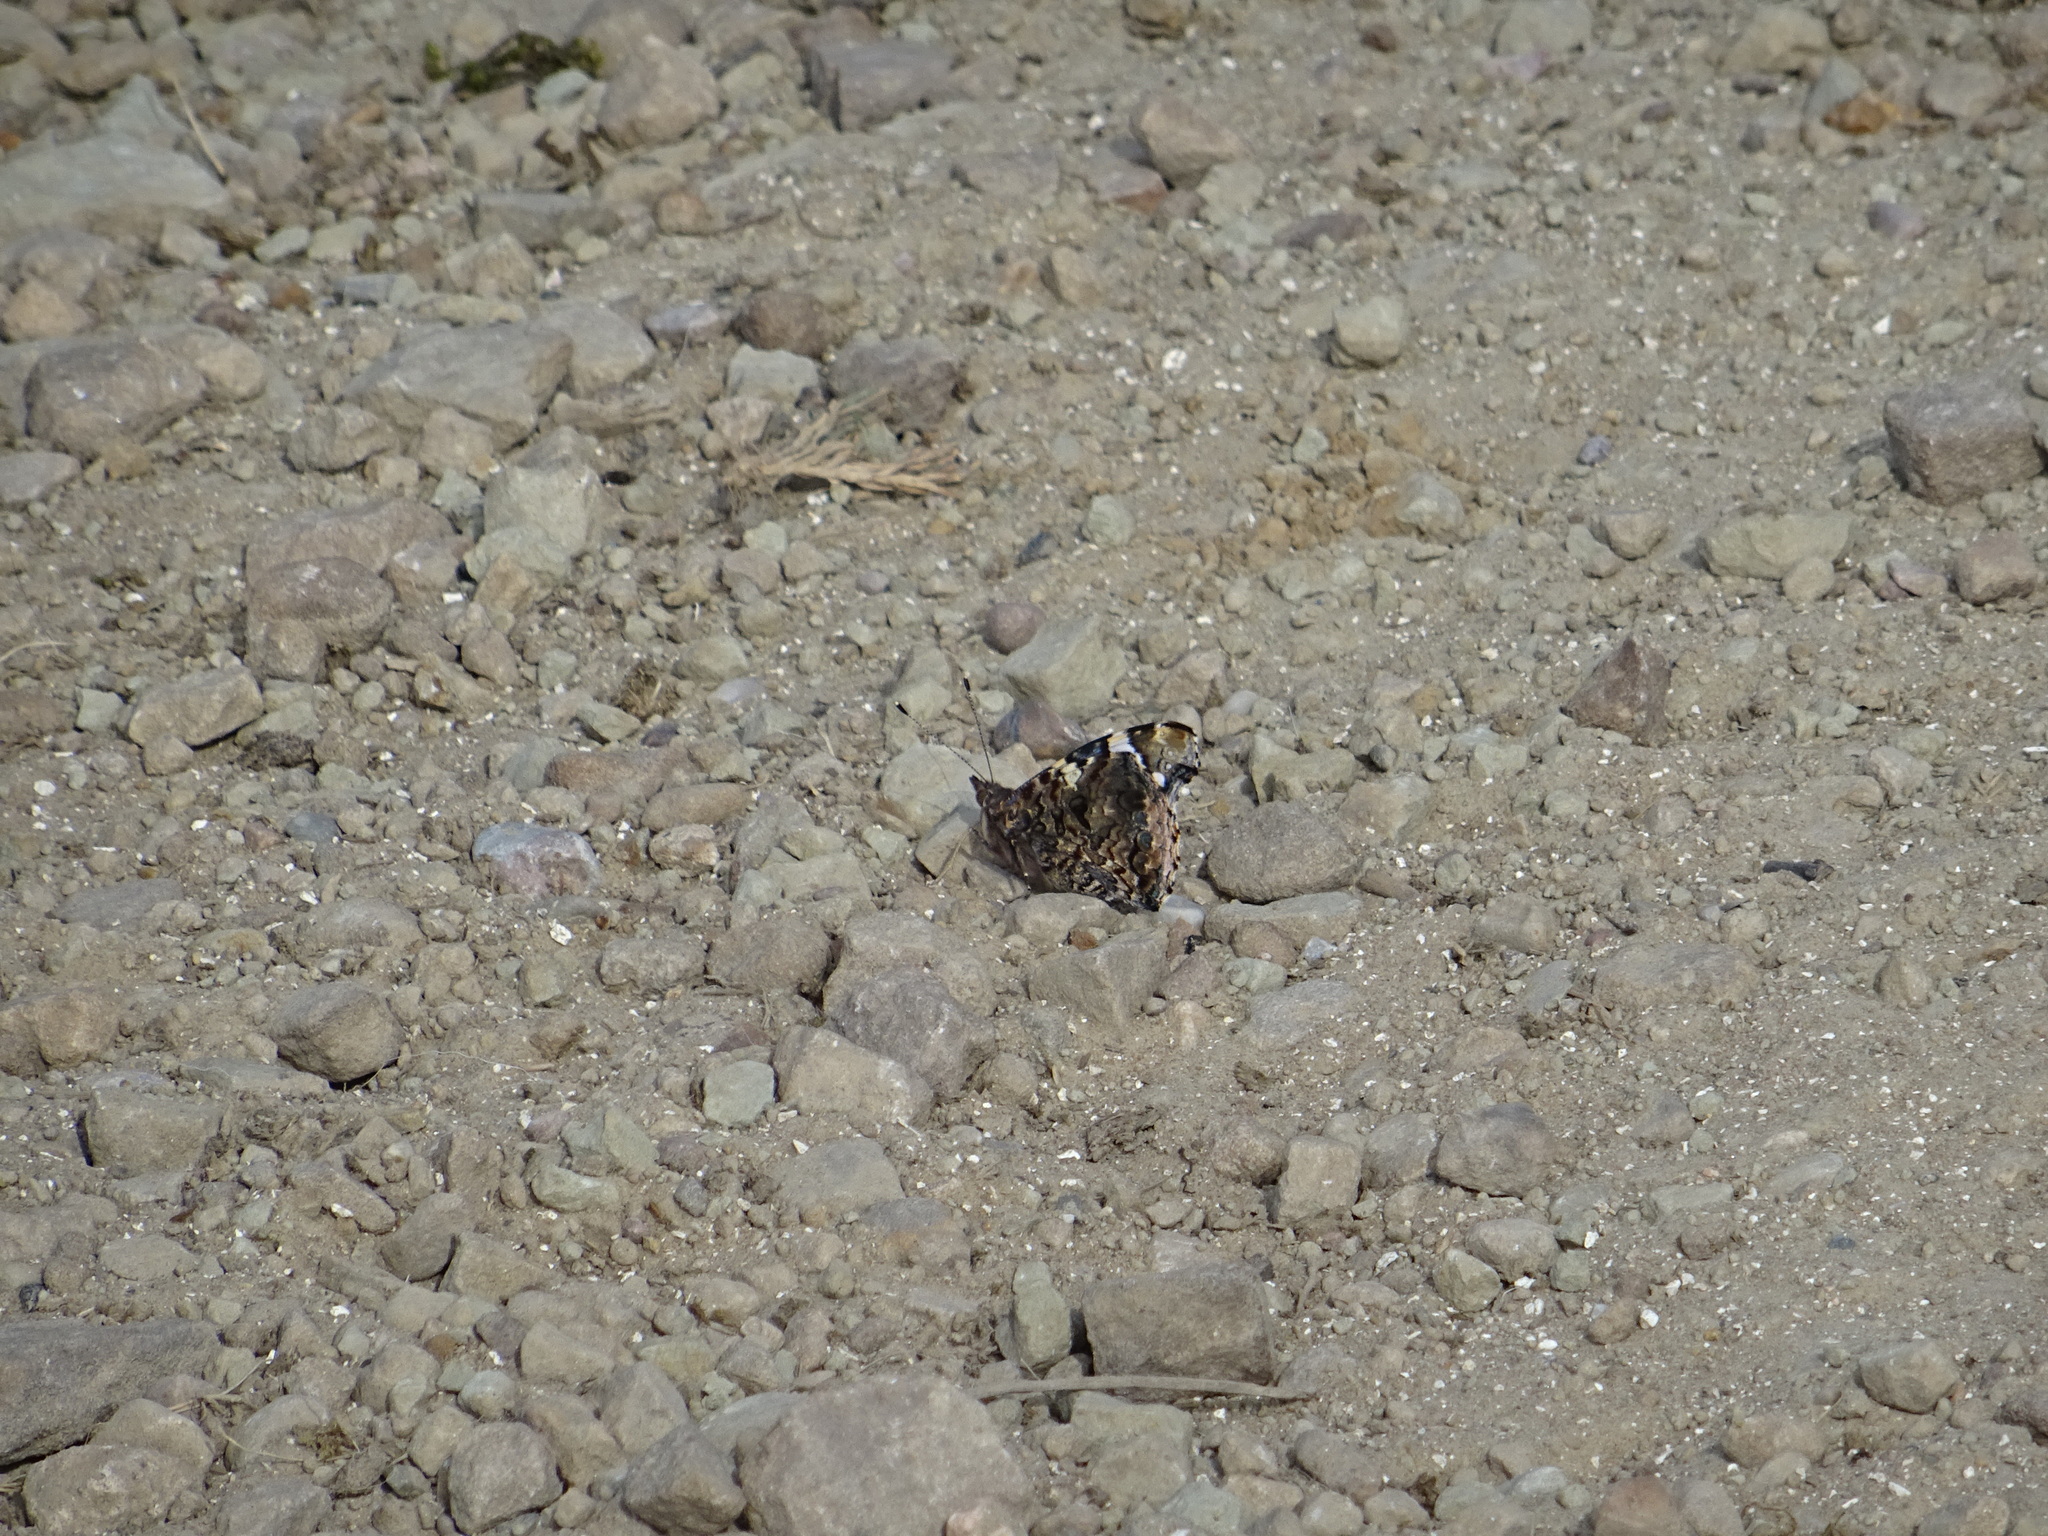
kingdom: Animalia
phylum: Arthropoda
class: Insecta
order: Lepidoptera
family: Nymphalidae
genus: Vanessa
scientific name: Vanessa atalanta
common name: Red admiral
